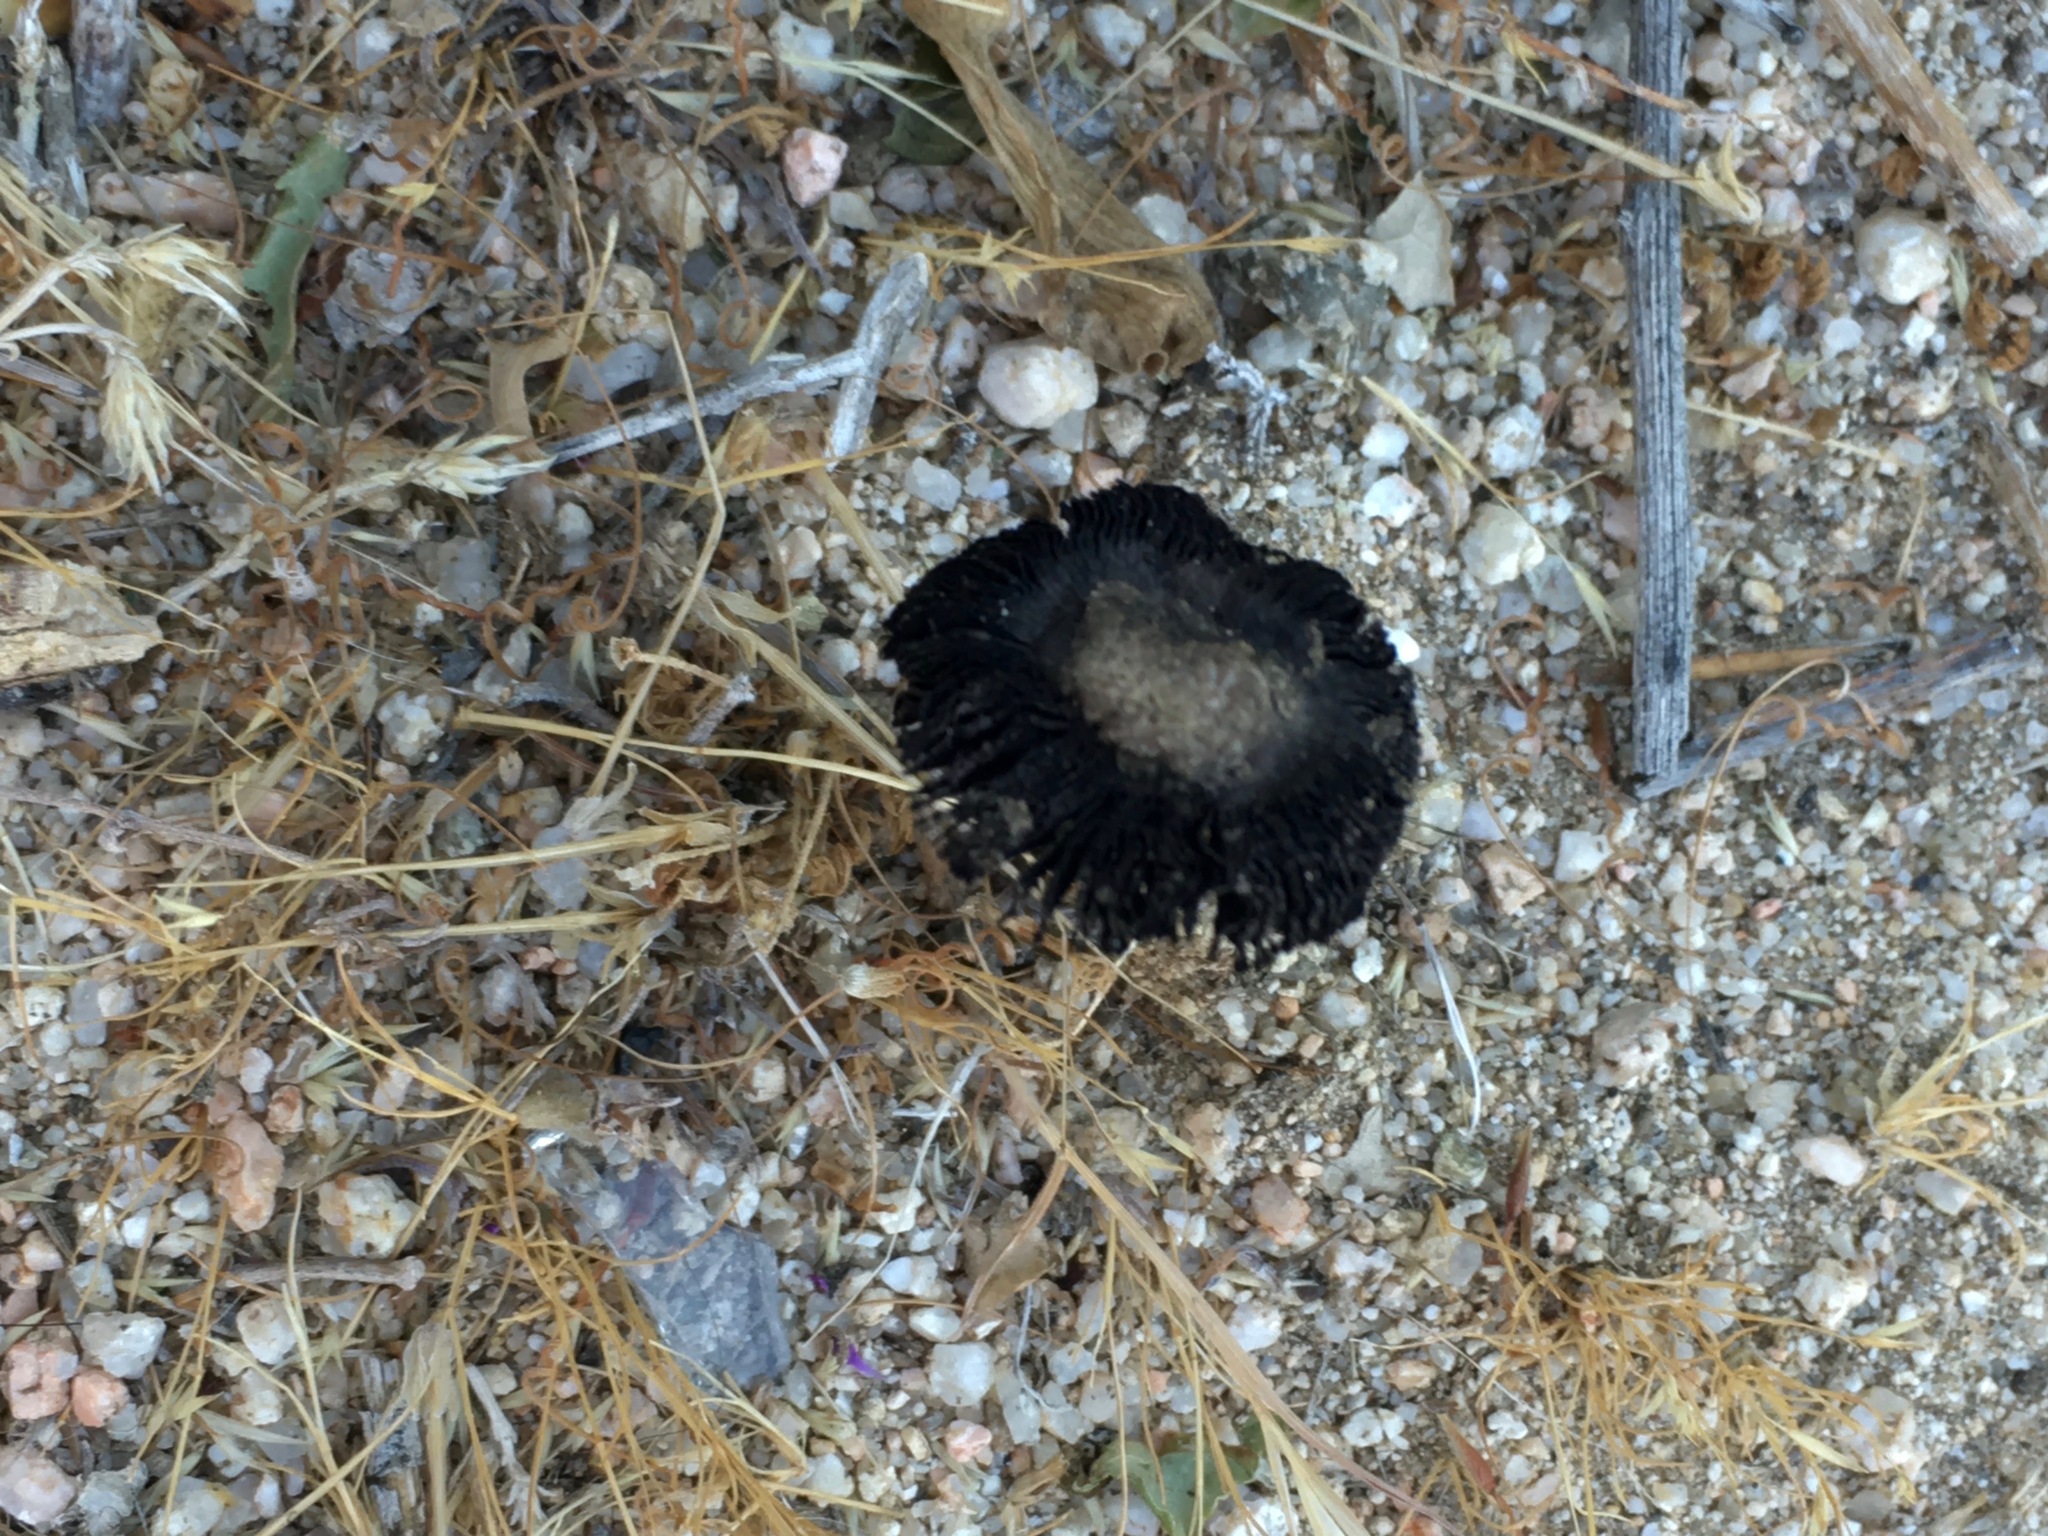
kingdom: Fungi
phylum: Basidiomycota
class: Agaricomycetes
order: Agaricales
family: Agaricaceae
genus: Montagnea
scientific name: Montagnea arenaria
